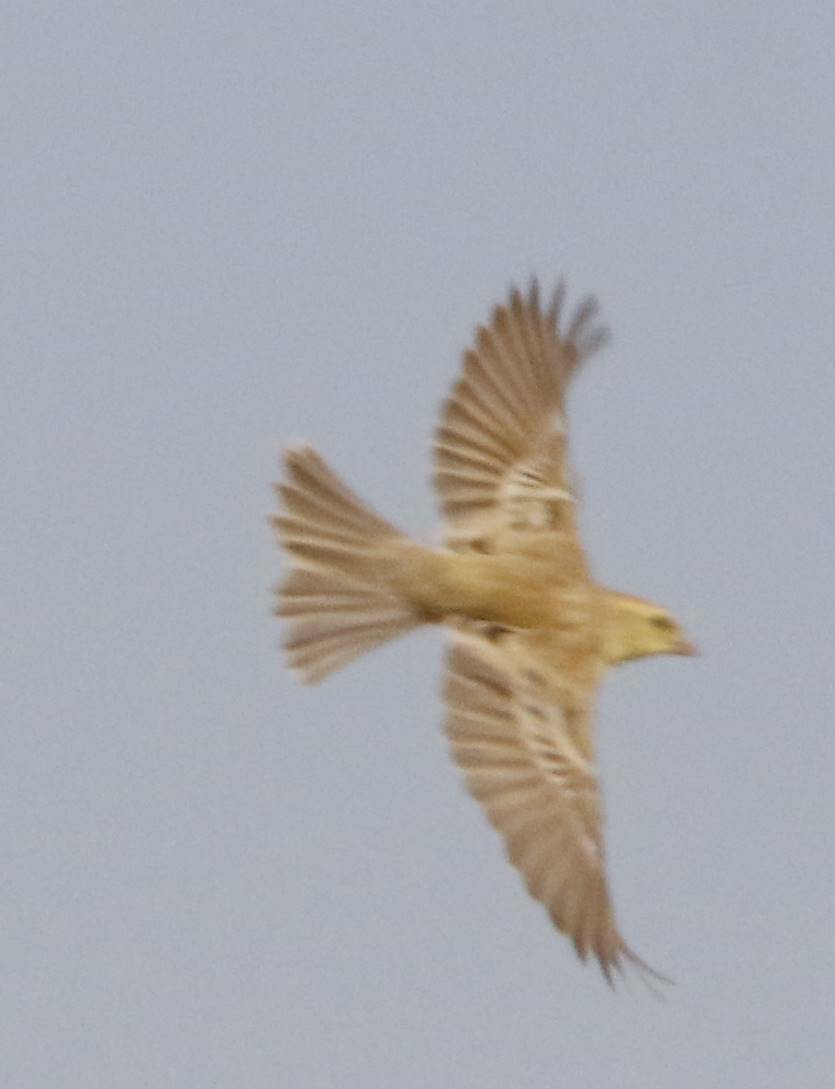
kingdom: Animalia
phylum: Chordata
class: Aves
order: Passeriformes
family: Passeridae
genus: Passer
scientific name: Passer luteus
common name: Sudan golden sparrow
